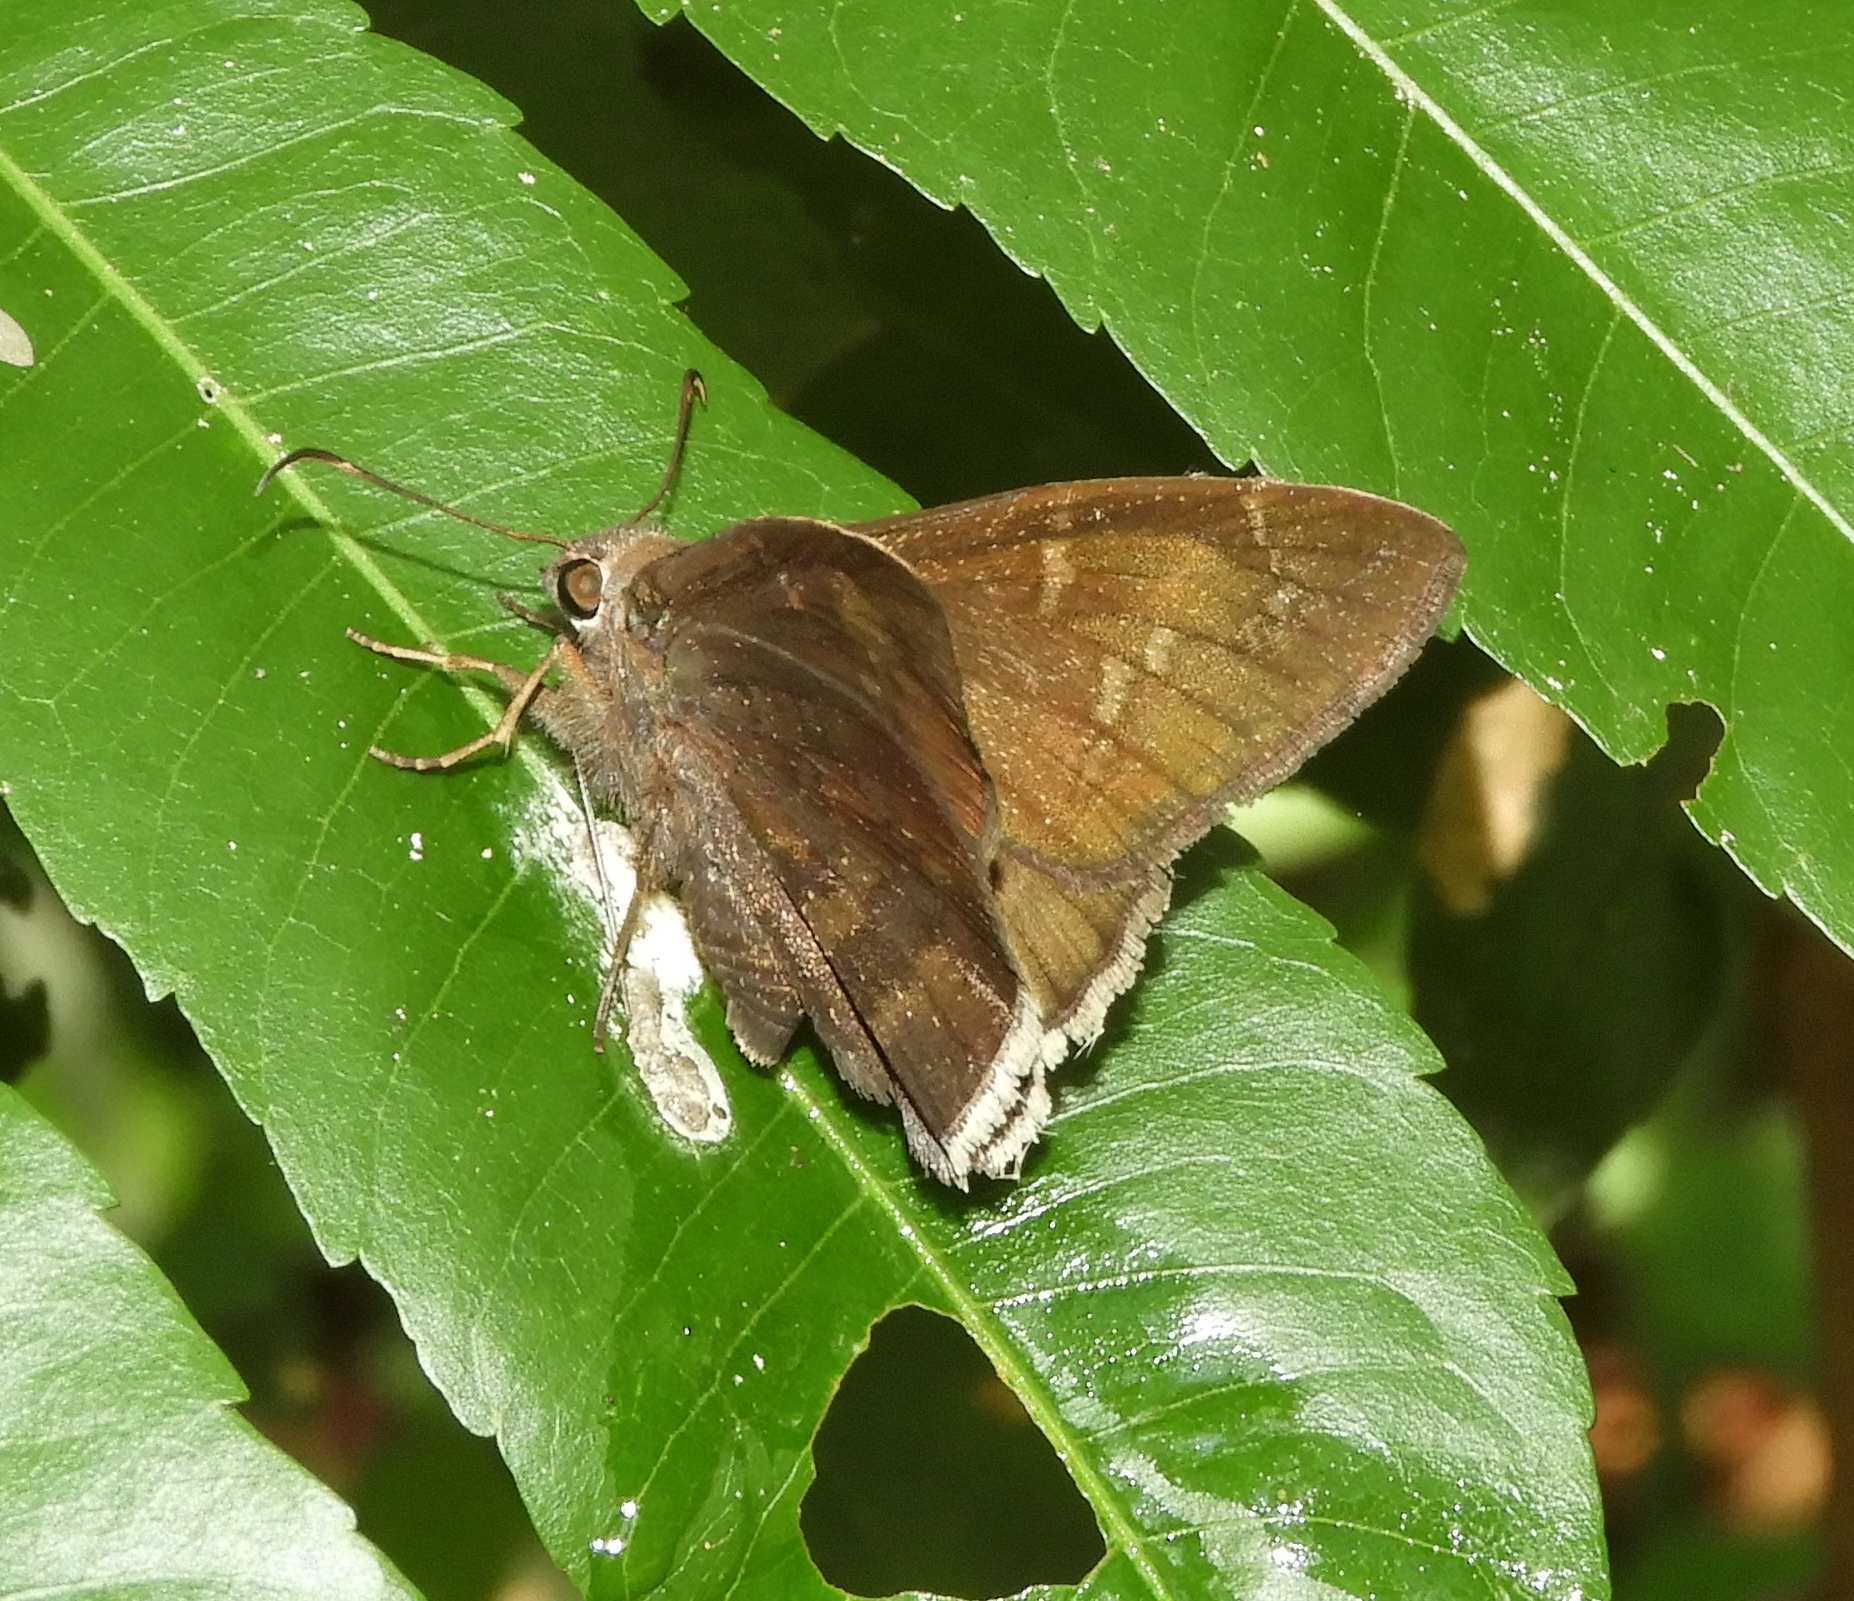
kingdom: Animalia
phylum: Arthropoda
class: Insecta
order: Lepidoptera
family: Hesperiidae
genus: Achalarus
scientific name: Achalarus Murgaria jalapus
